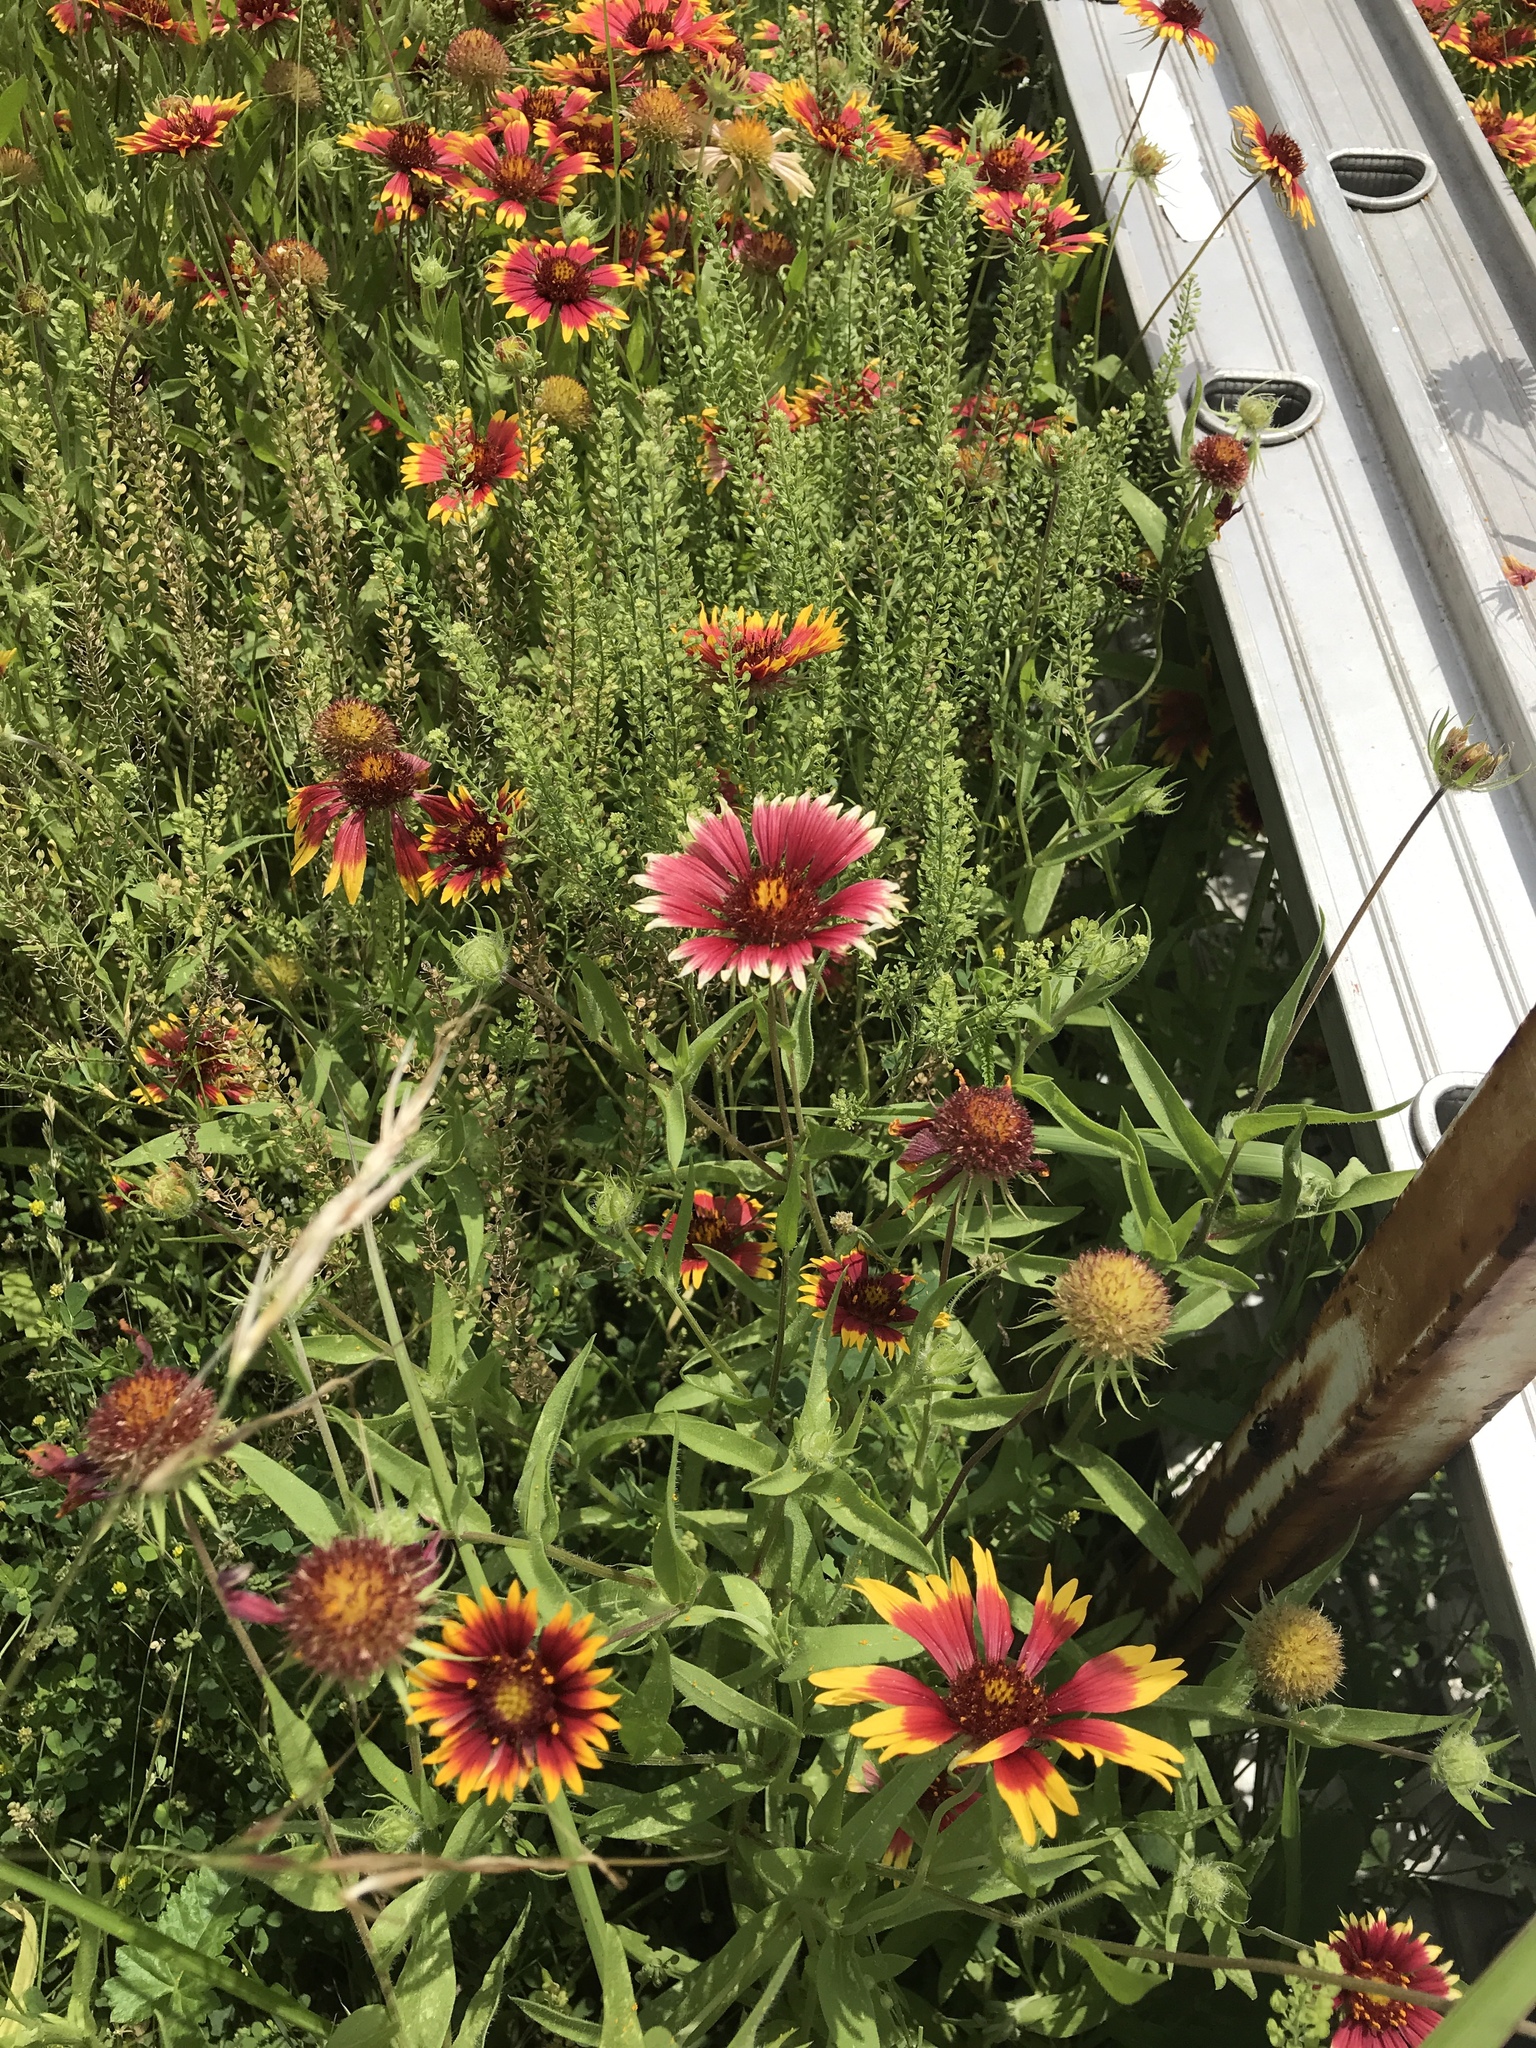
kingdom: Plantae
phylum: Tracheophyta
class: Magnoliopsida
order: Asterales
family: Asteraceae
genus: Gaillardia
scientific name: Gaillardia pulchella
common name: Firewheel
